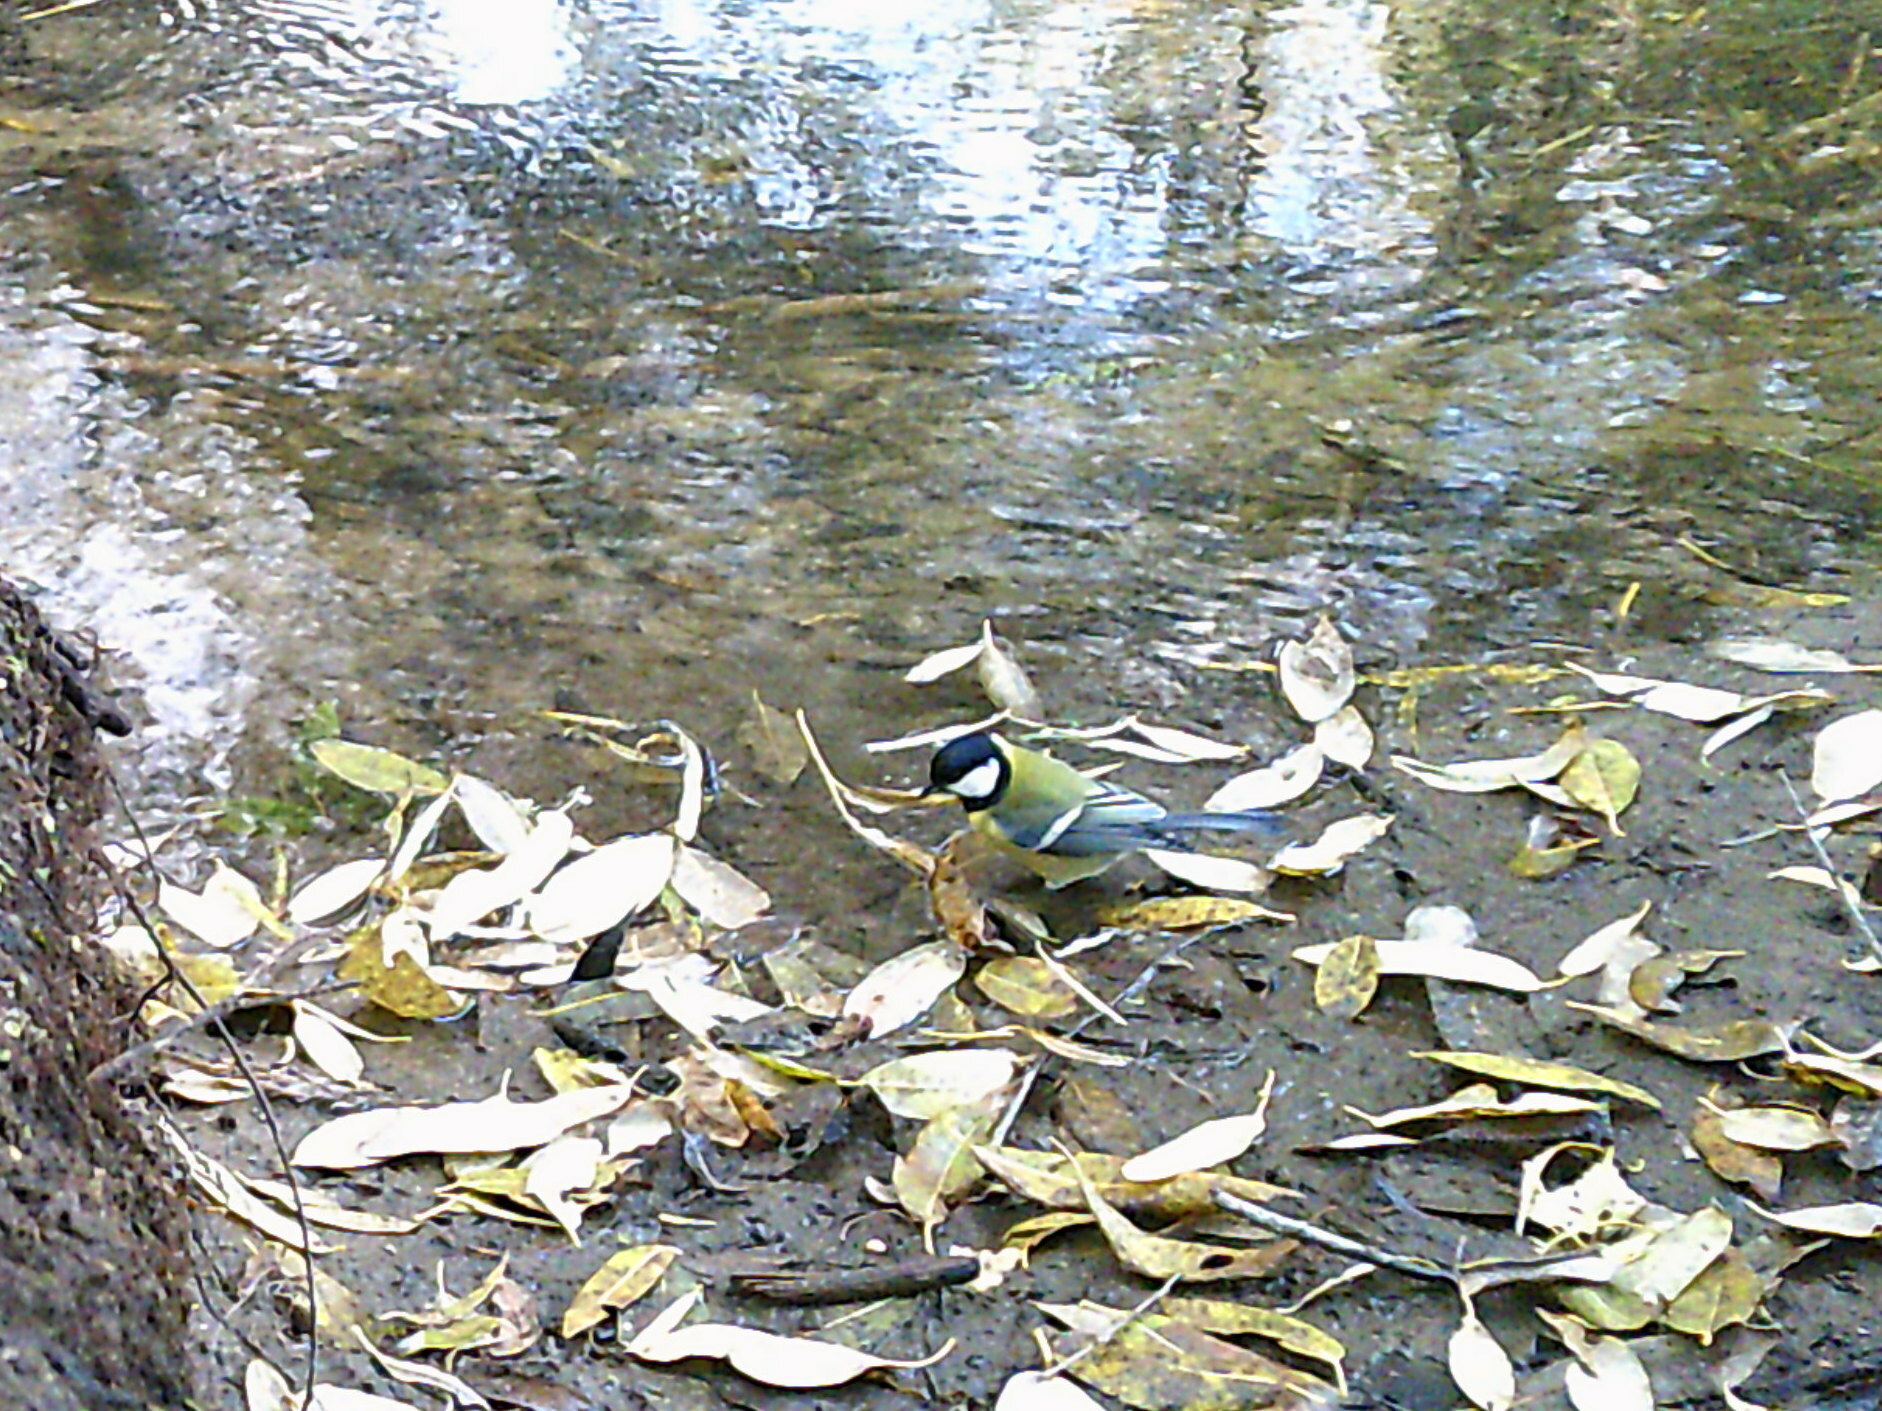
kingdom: Animalia
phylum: Chordata
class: Aves
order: Passeriformes
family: Paridae
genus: Parus
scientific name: Parus major
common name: Great tit
